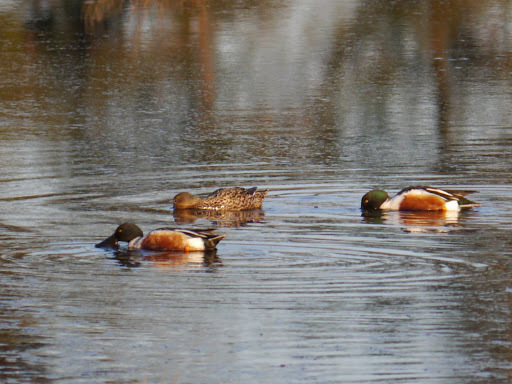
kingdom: Animalia
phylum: Chordata
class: Aves
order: Anseriformes
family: Anatidae
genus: Spatula
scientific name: Spatula clypeata
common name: Northern shoveler
